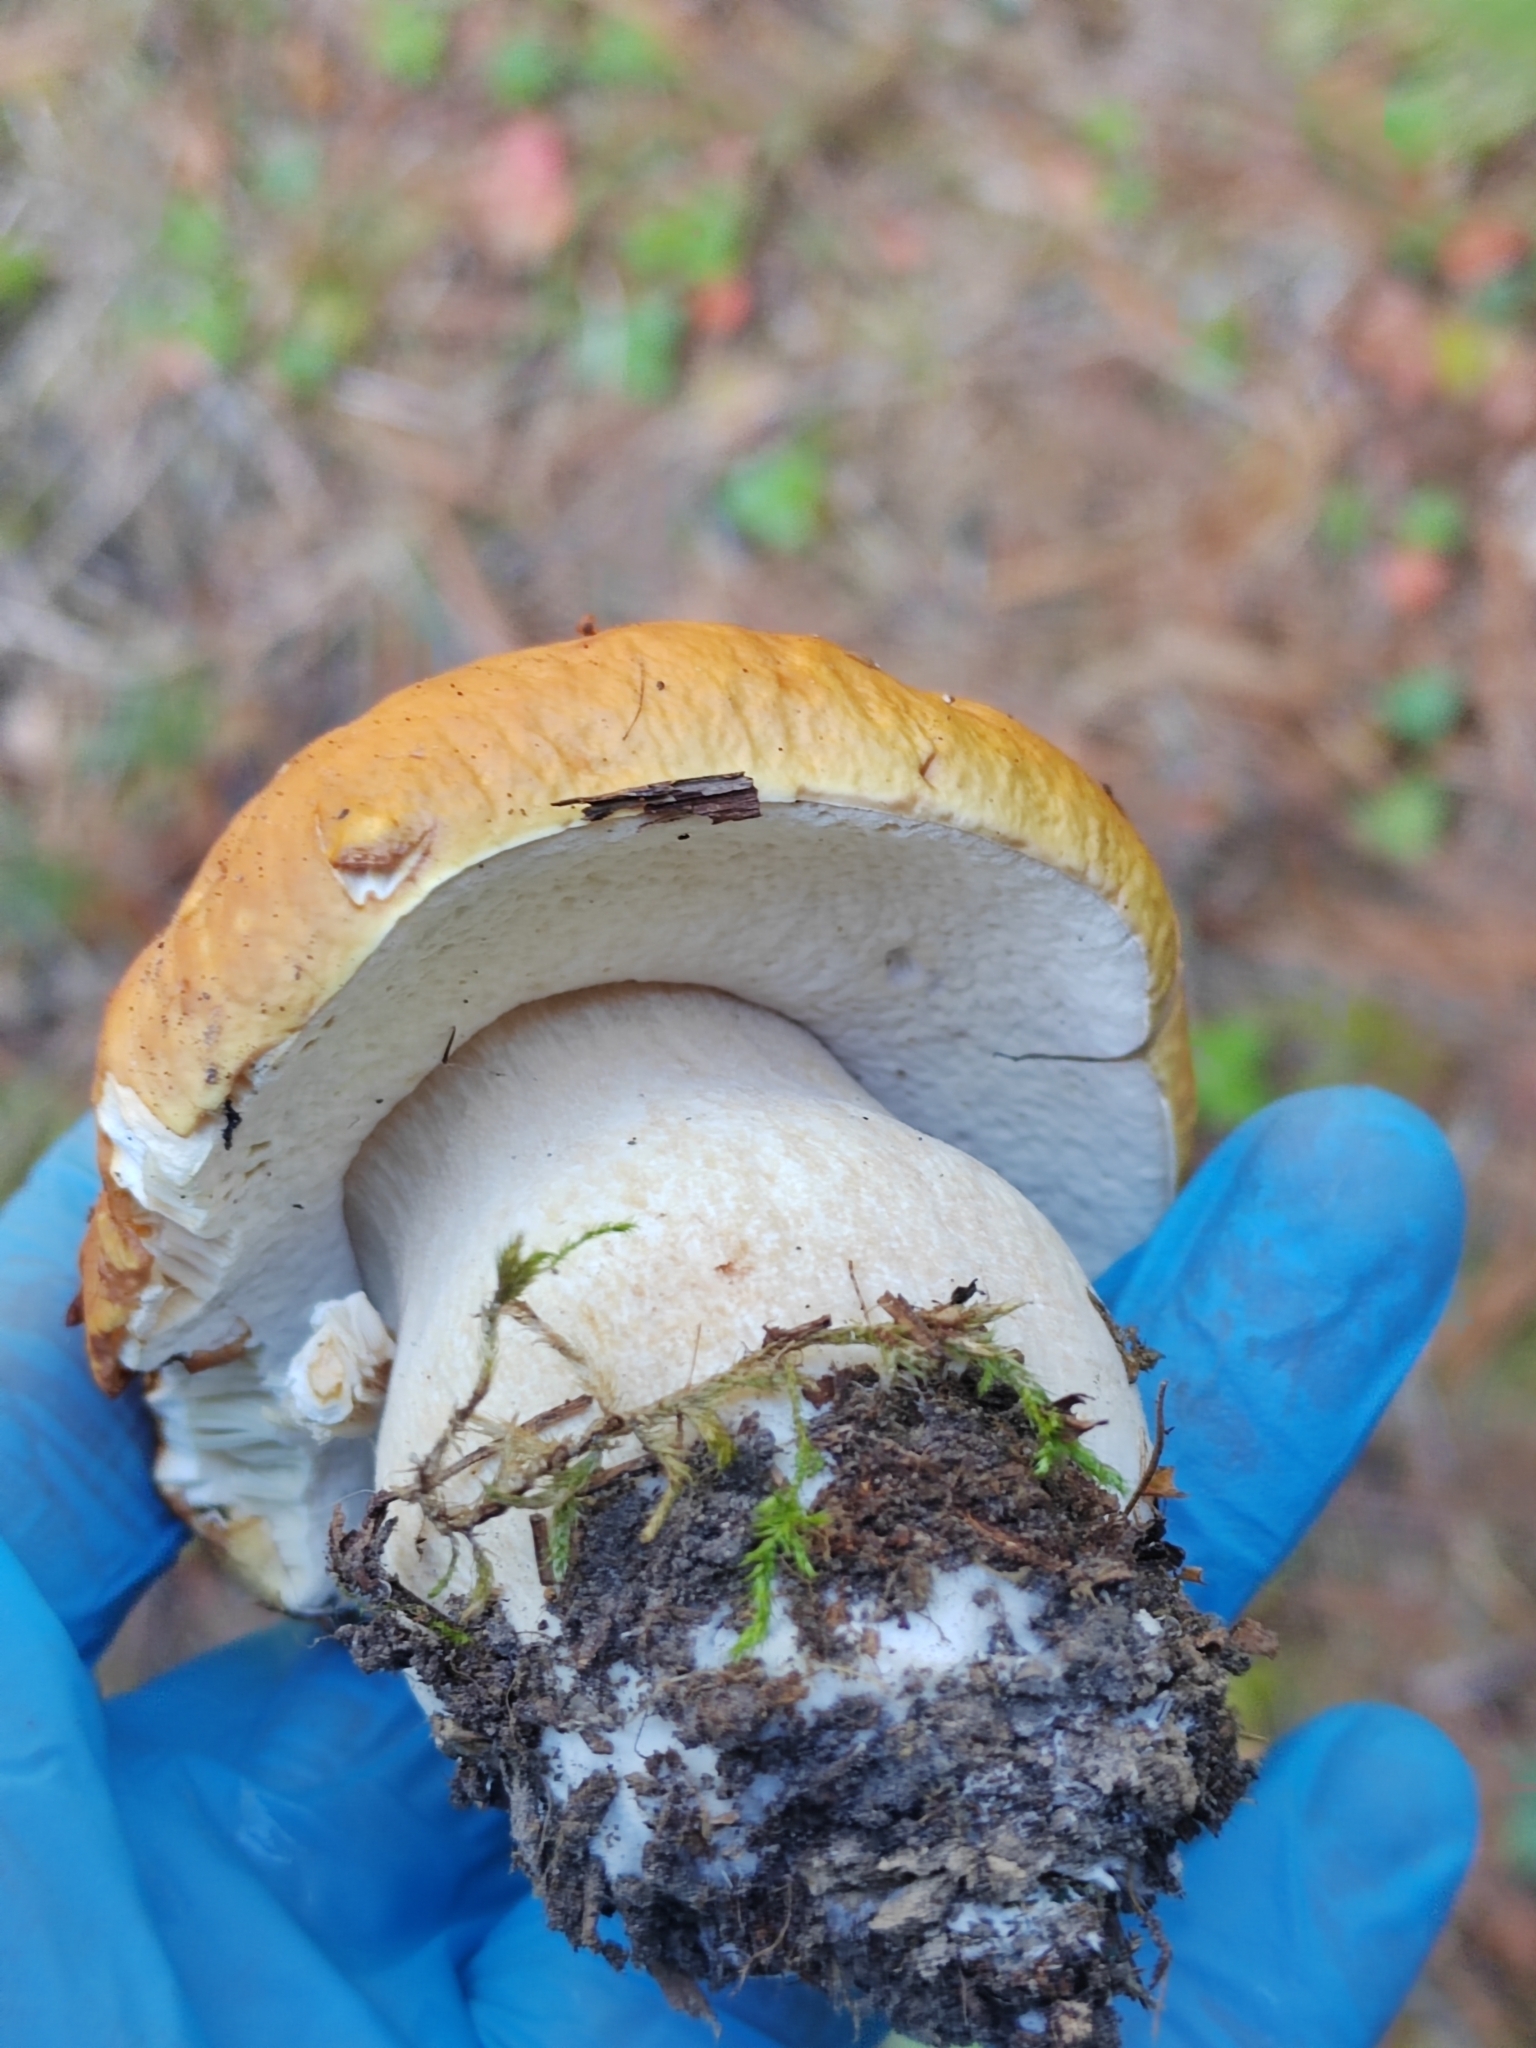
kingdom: Fungi
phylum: Basidiomycota
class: Agaricomycetes
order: Boletales
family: Boletaceae
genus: Boletus
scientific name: Boletus edulis
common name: Cep
